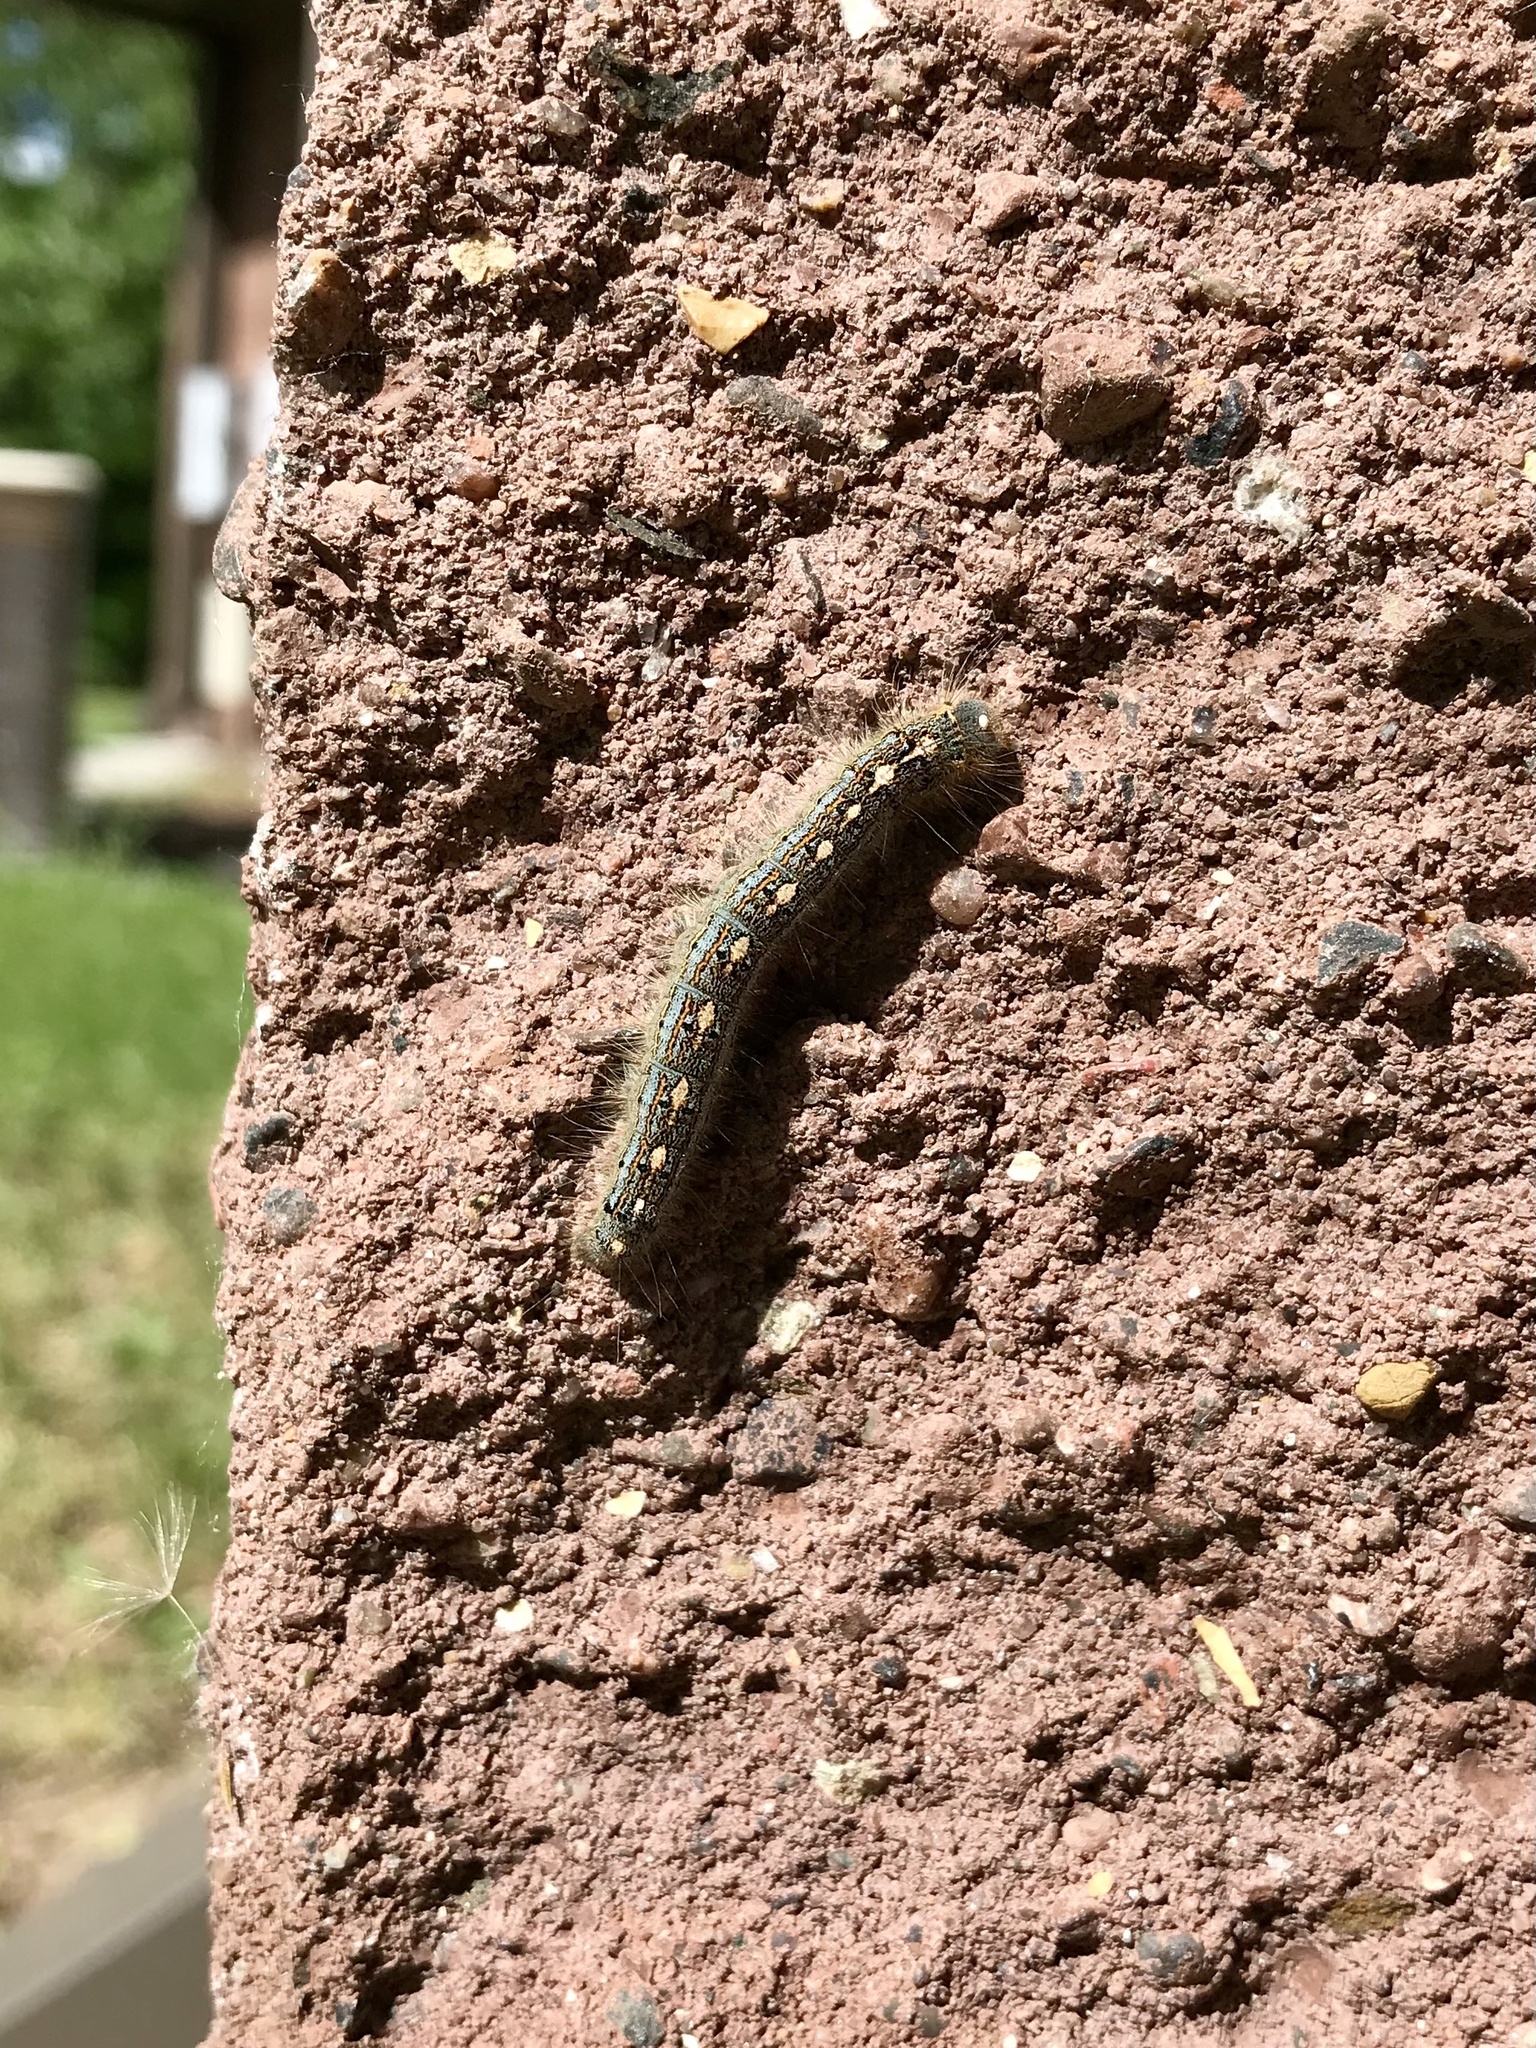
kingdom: Animalia
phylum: Arthropoda
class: Insecta
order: Lepidoptera
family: Lasiocampidae
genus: Malacosoma
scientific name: Malacosoma disstria
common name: Forest tent caterpillar
